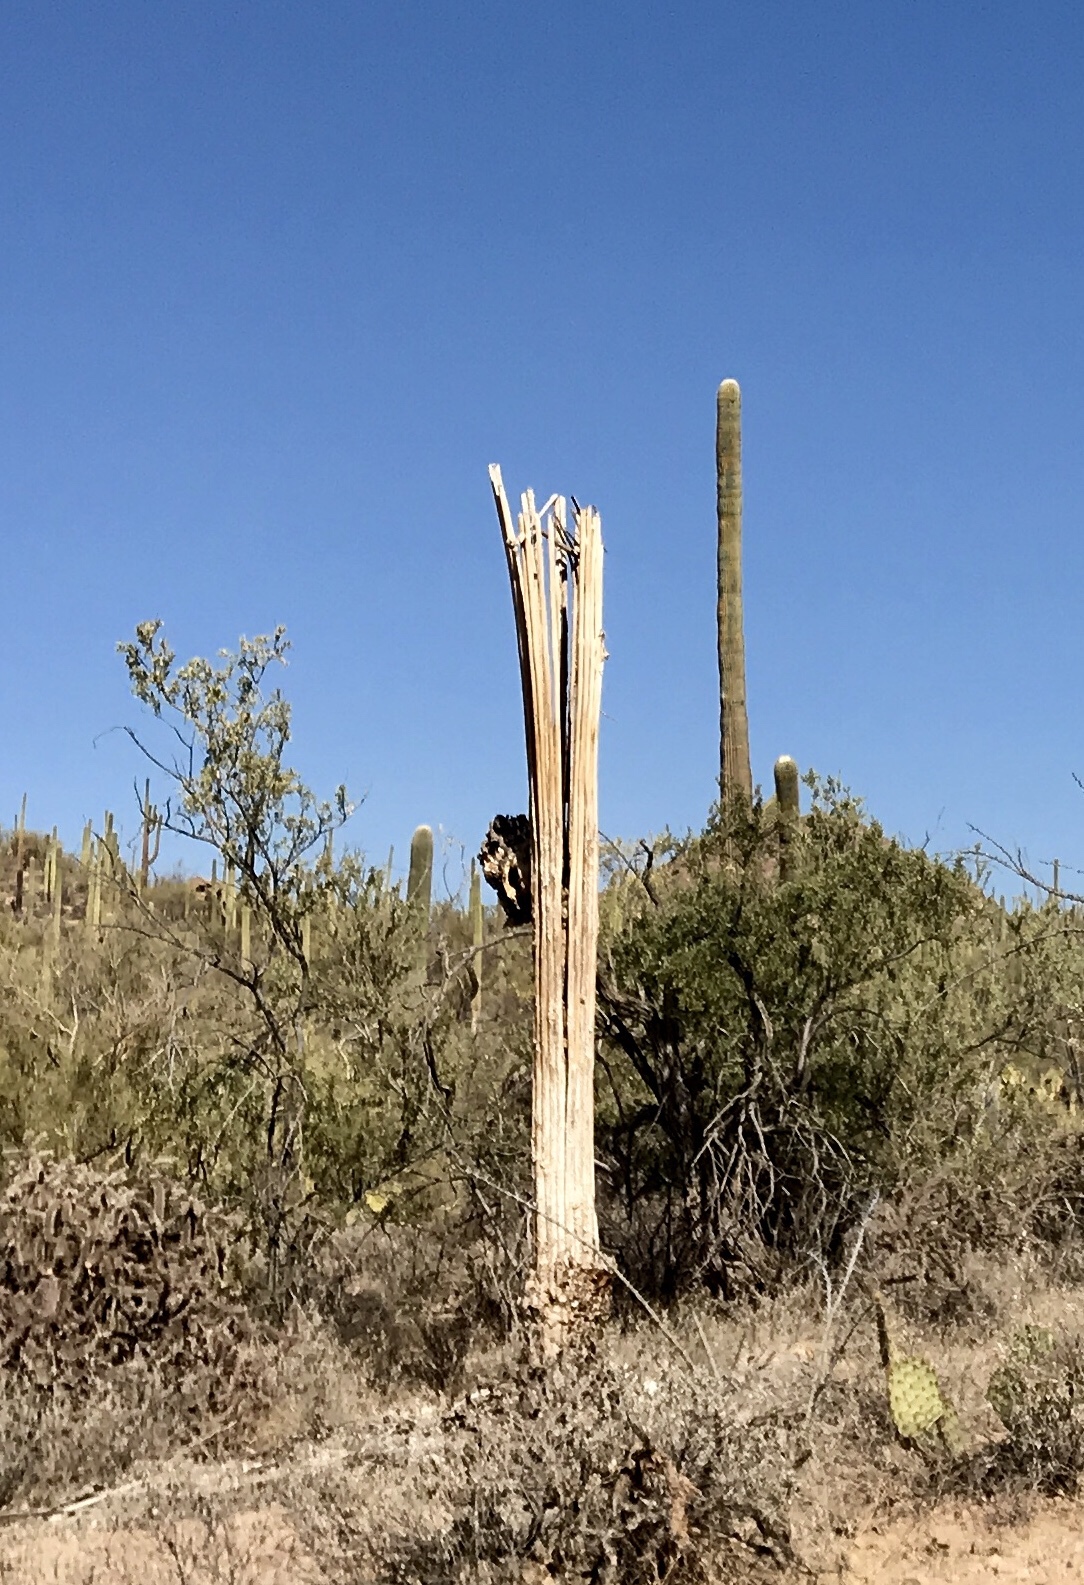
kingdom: Plantae
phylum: Tracheophyta
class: Magnoliopsida
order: Caryophyllales
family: Cactaceae
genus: Carnegiea
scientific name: Carnegiea gigantea
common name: Saguaro
